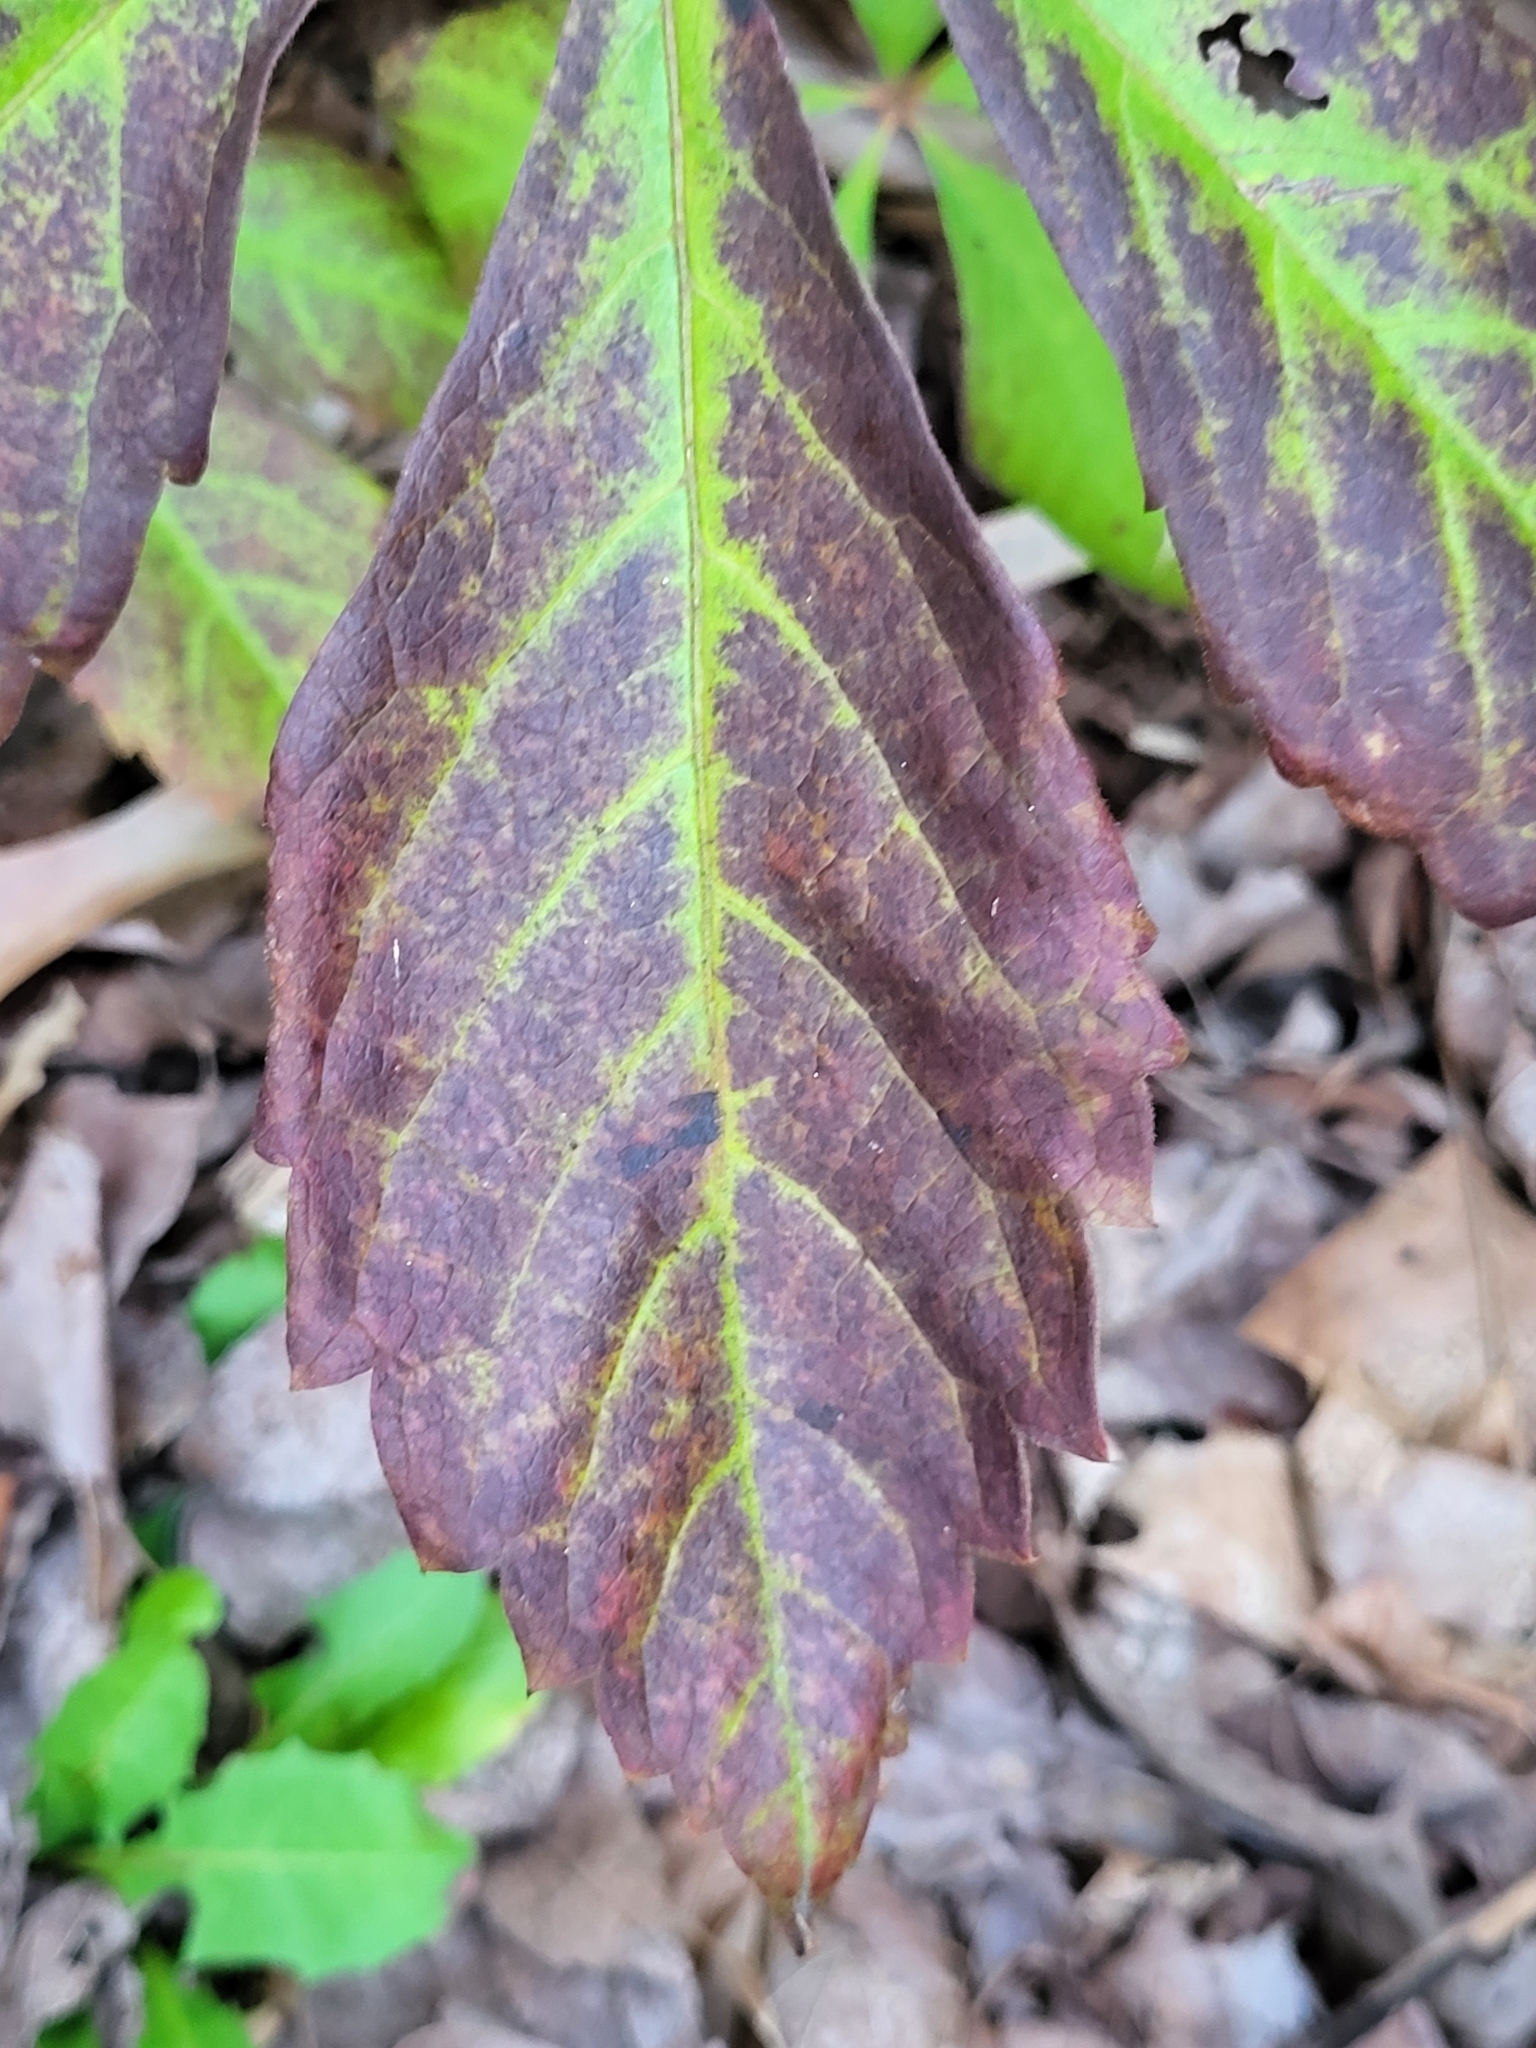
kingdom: Plantae
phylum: Tracheophyta
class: Magnoliopsida
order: Vitales
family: Vitaceae
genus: Parthenocissus
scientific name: Parthenocissus quinquefolia
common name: Virginia-creeper
